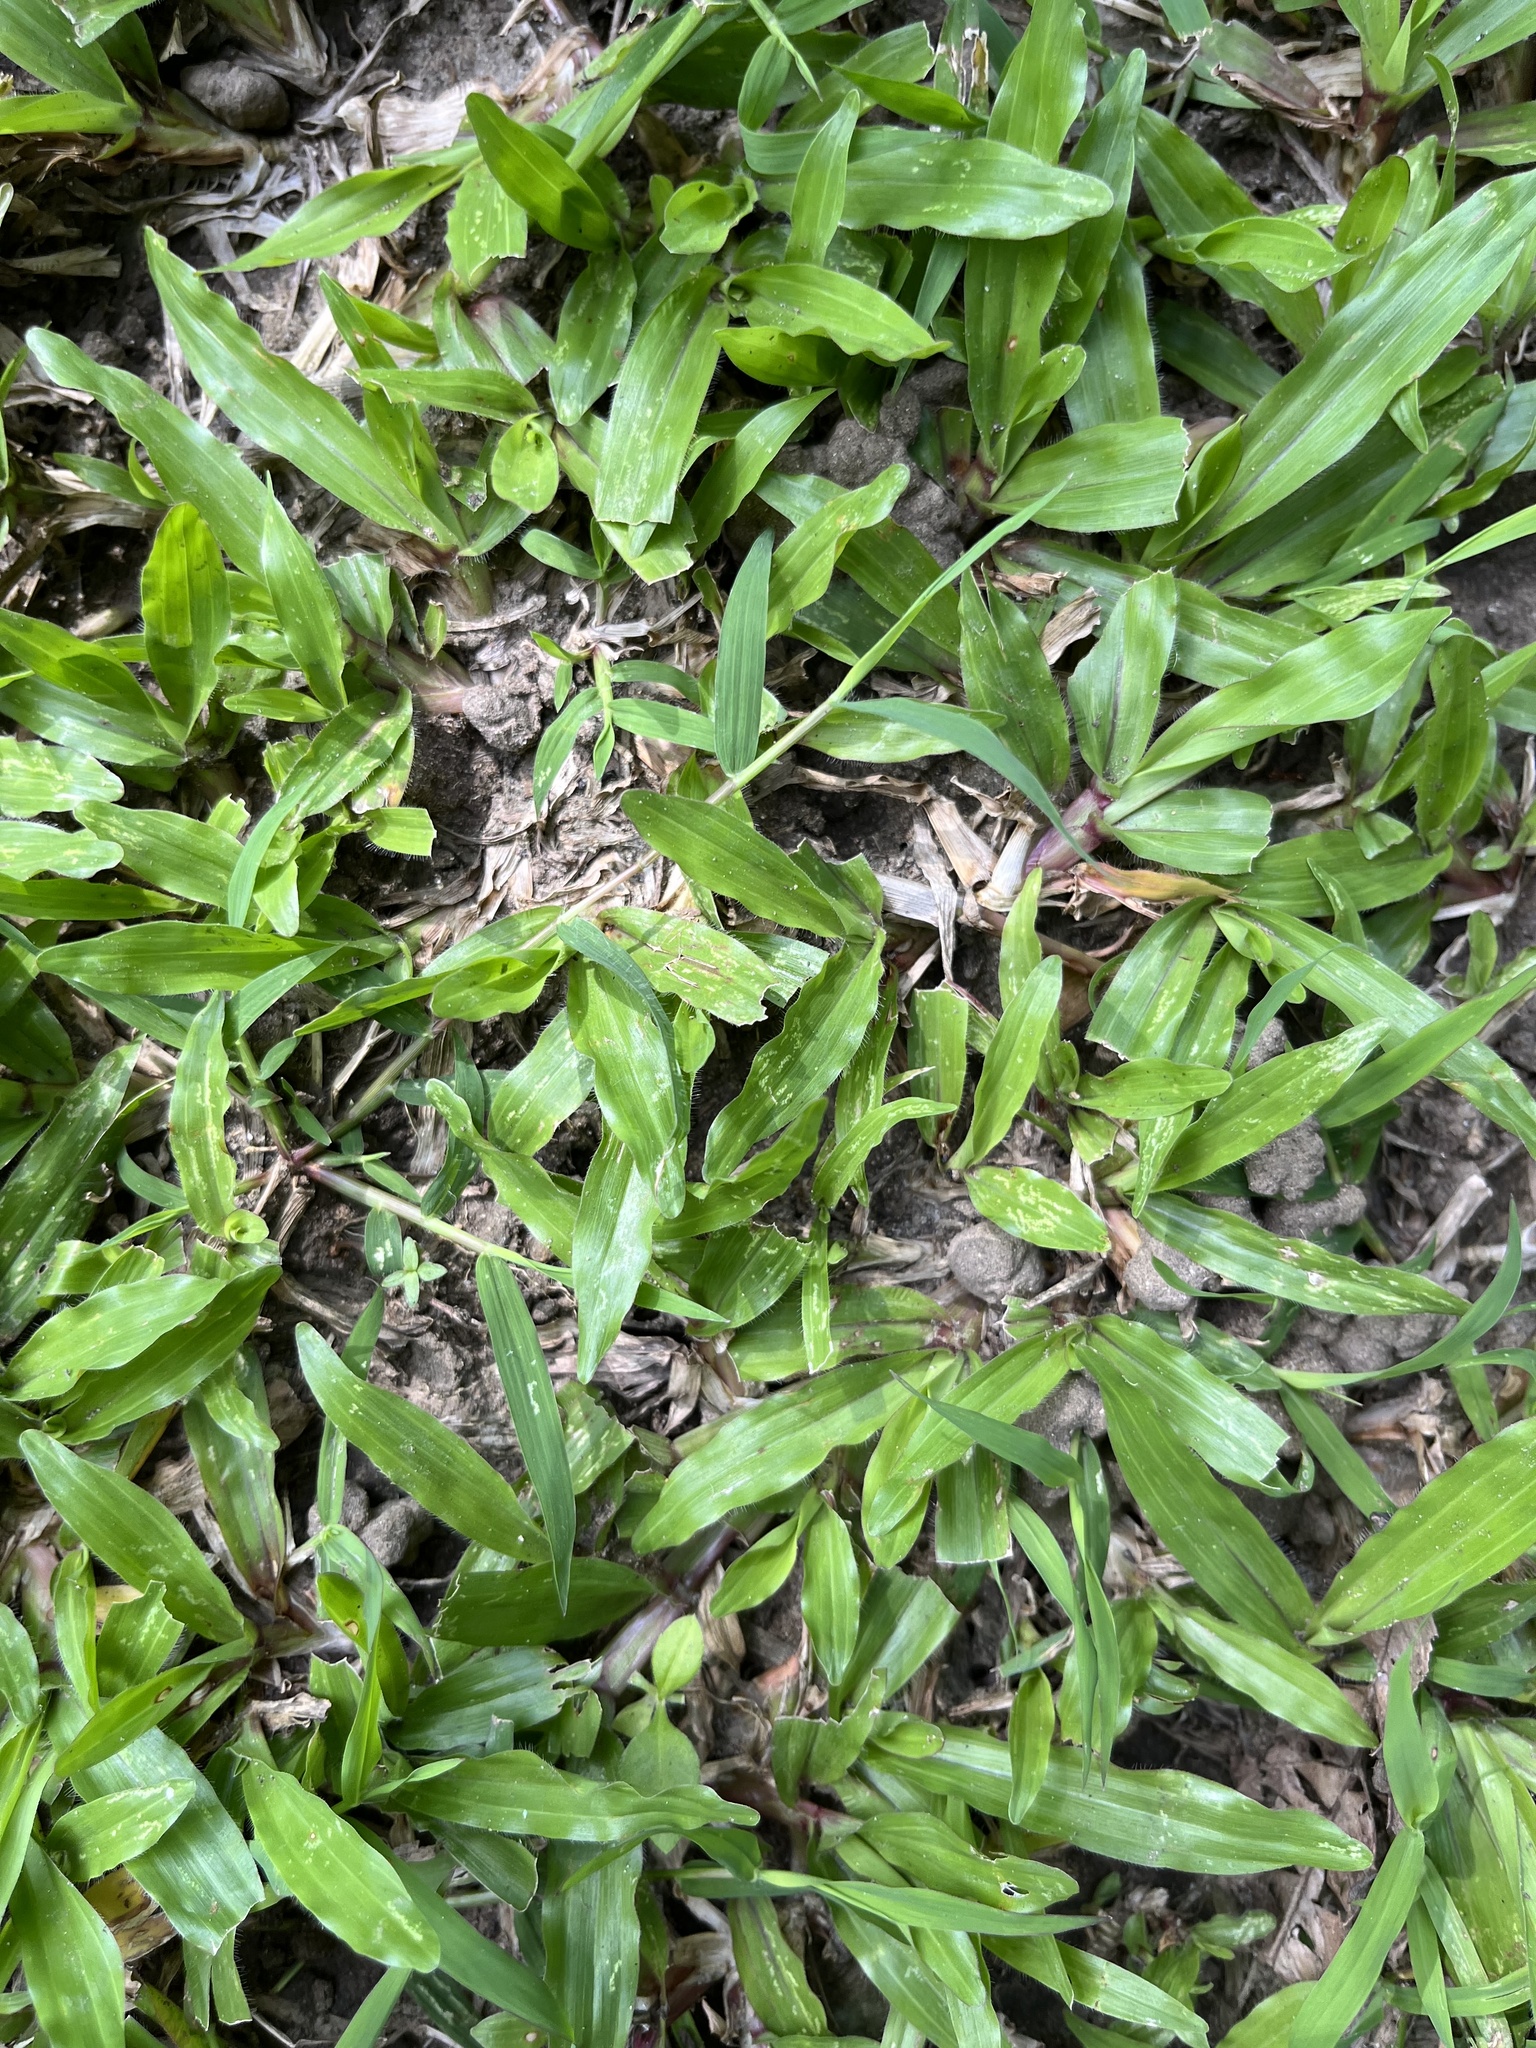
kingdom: Plantae
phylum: Tracheophyta
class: Liliopsida
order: Poales
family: Poaceae
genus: Axonopus
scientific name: Axonopus compressus
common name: American carpet grass
